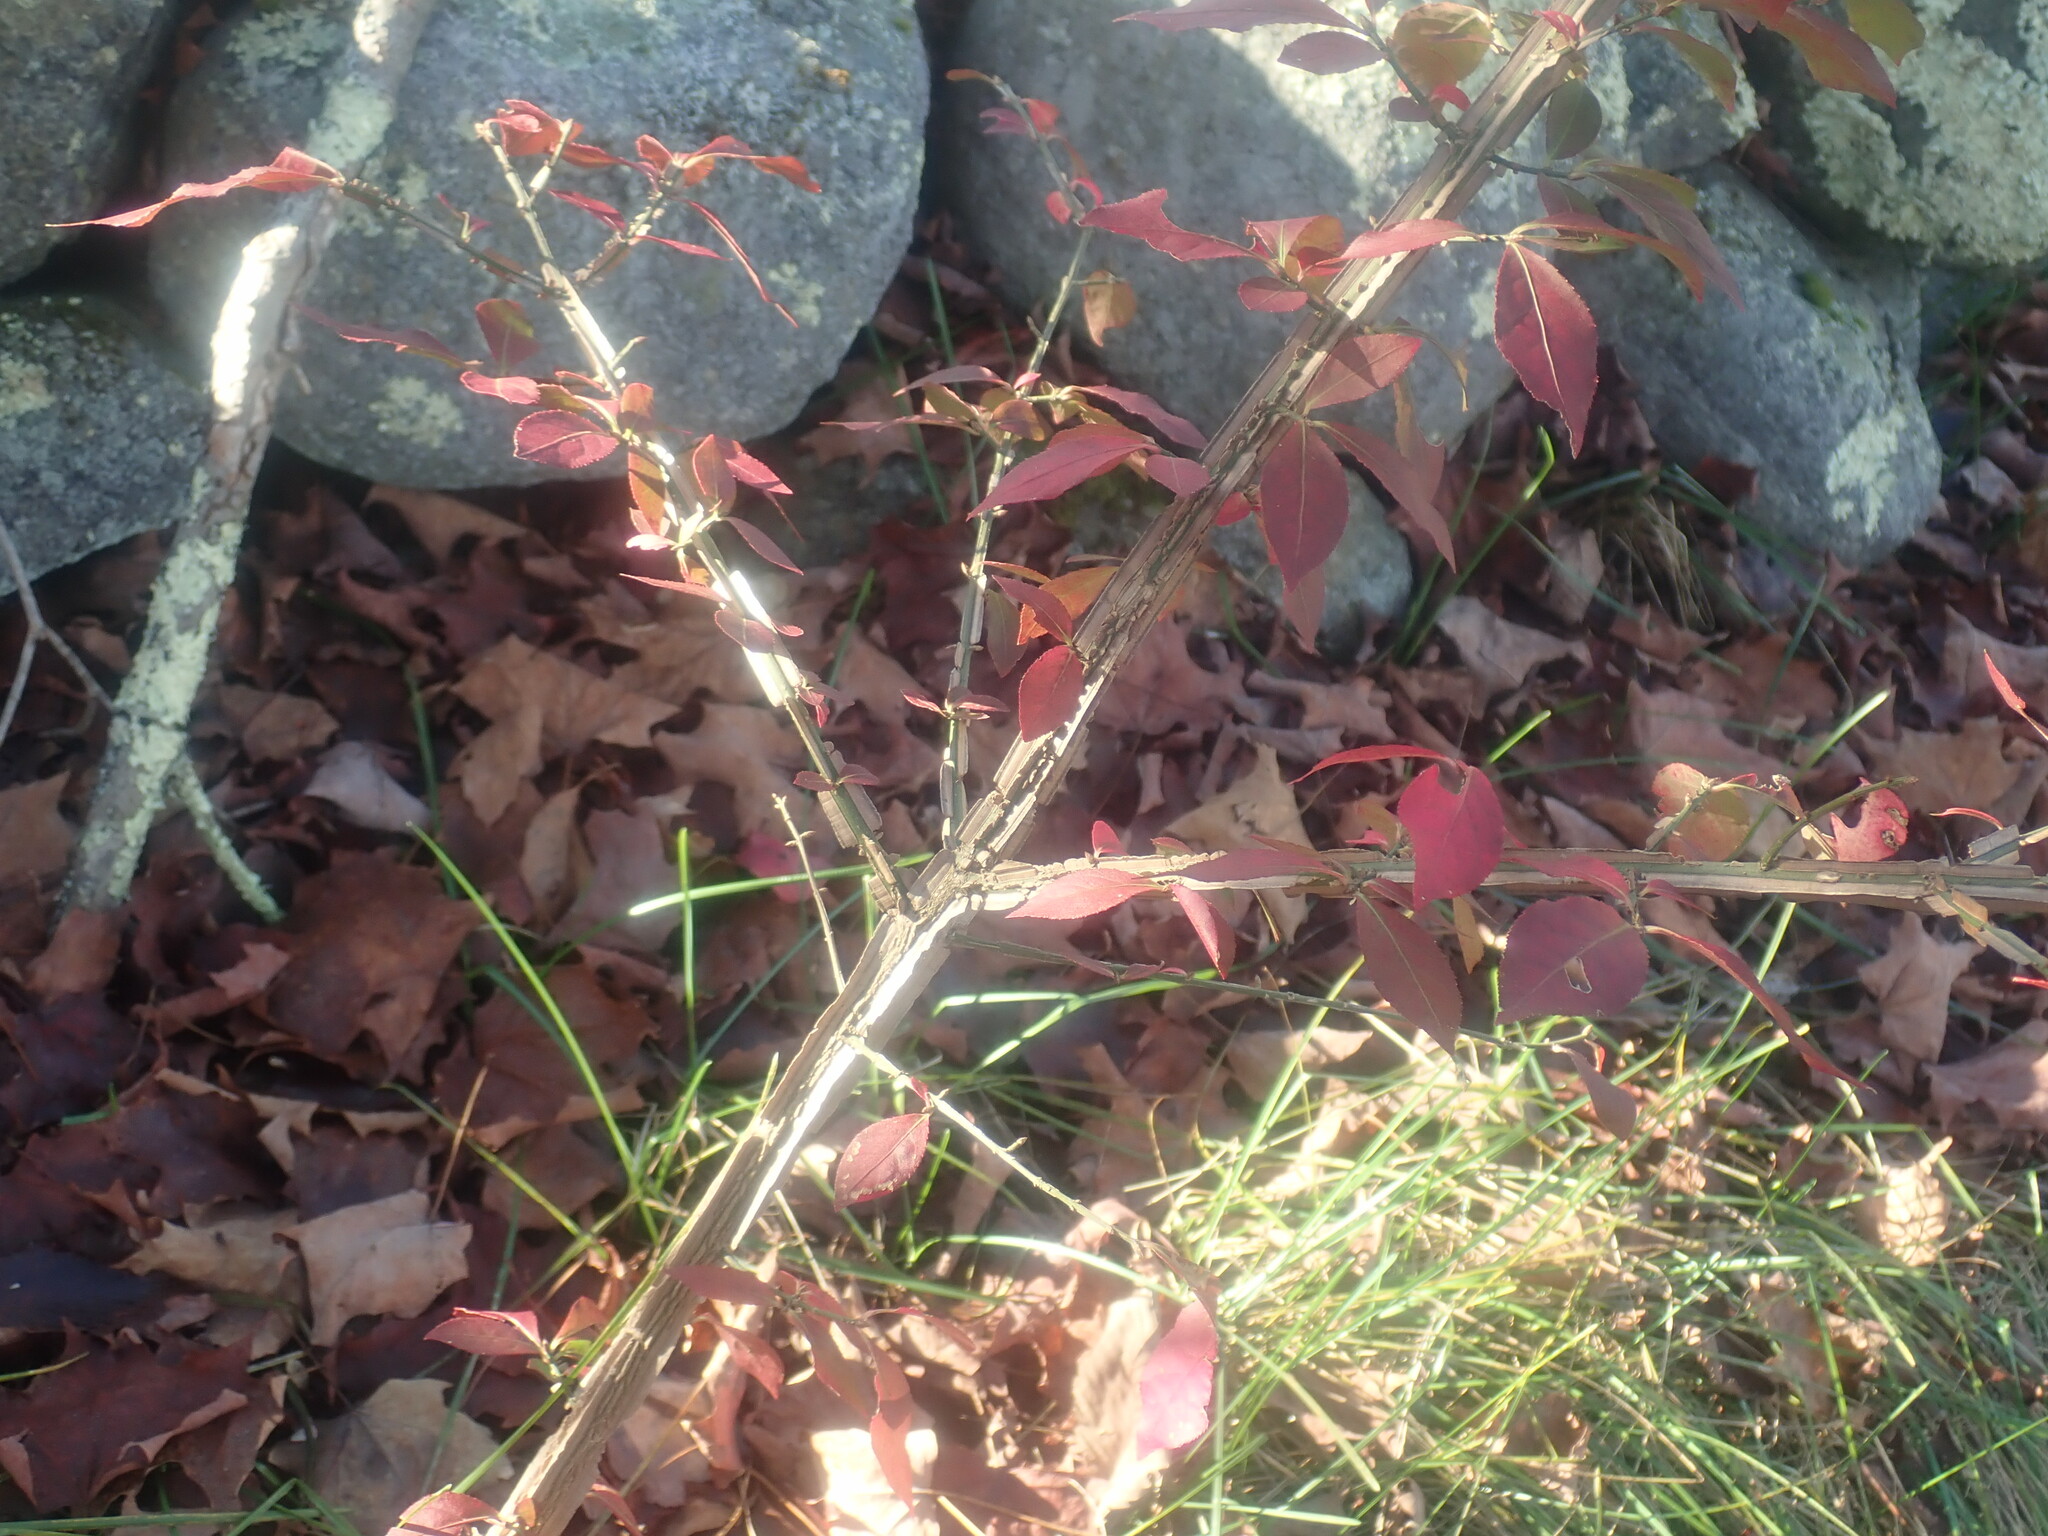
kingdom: Plantae
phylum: Tracheophyta
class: Magnoliopsida
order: Celastrales
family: Celastraceae
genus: Euonymus
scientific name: Euonymus alatus
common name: Winged euonymus
